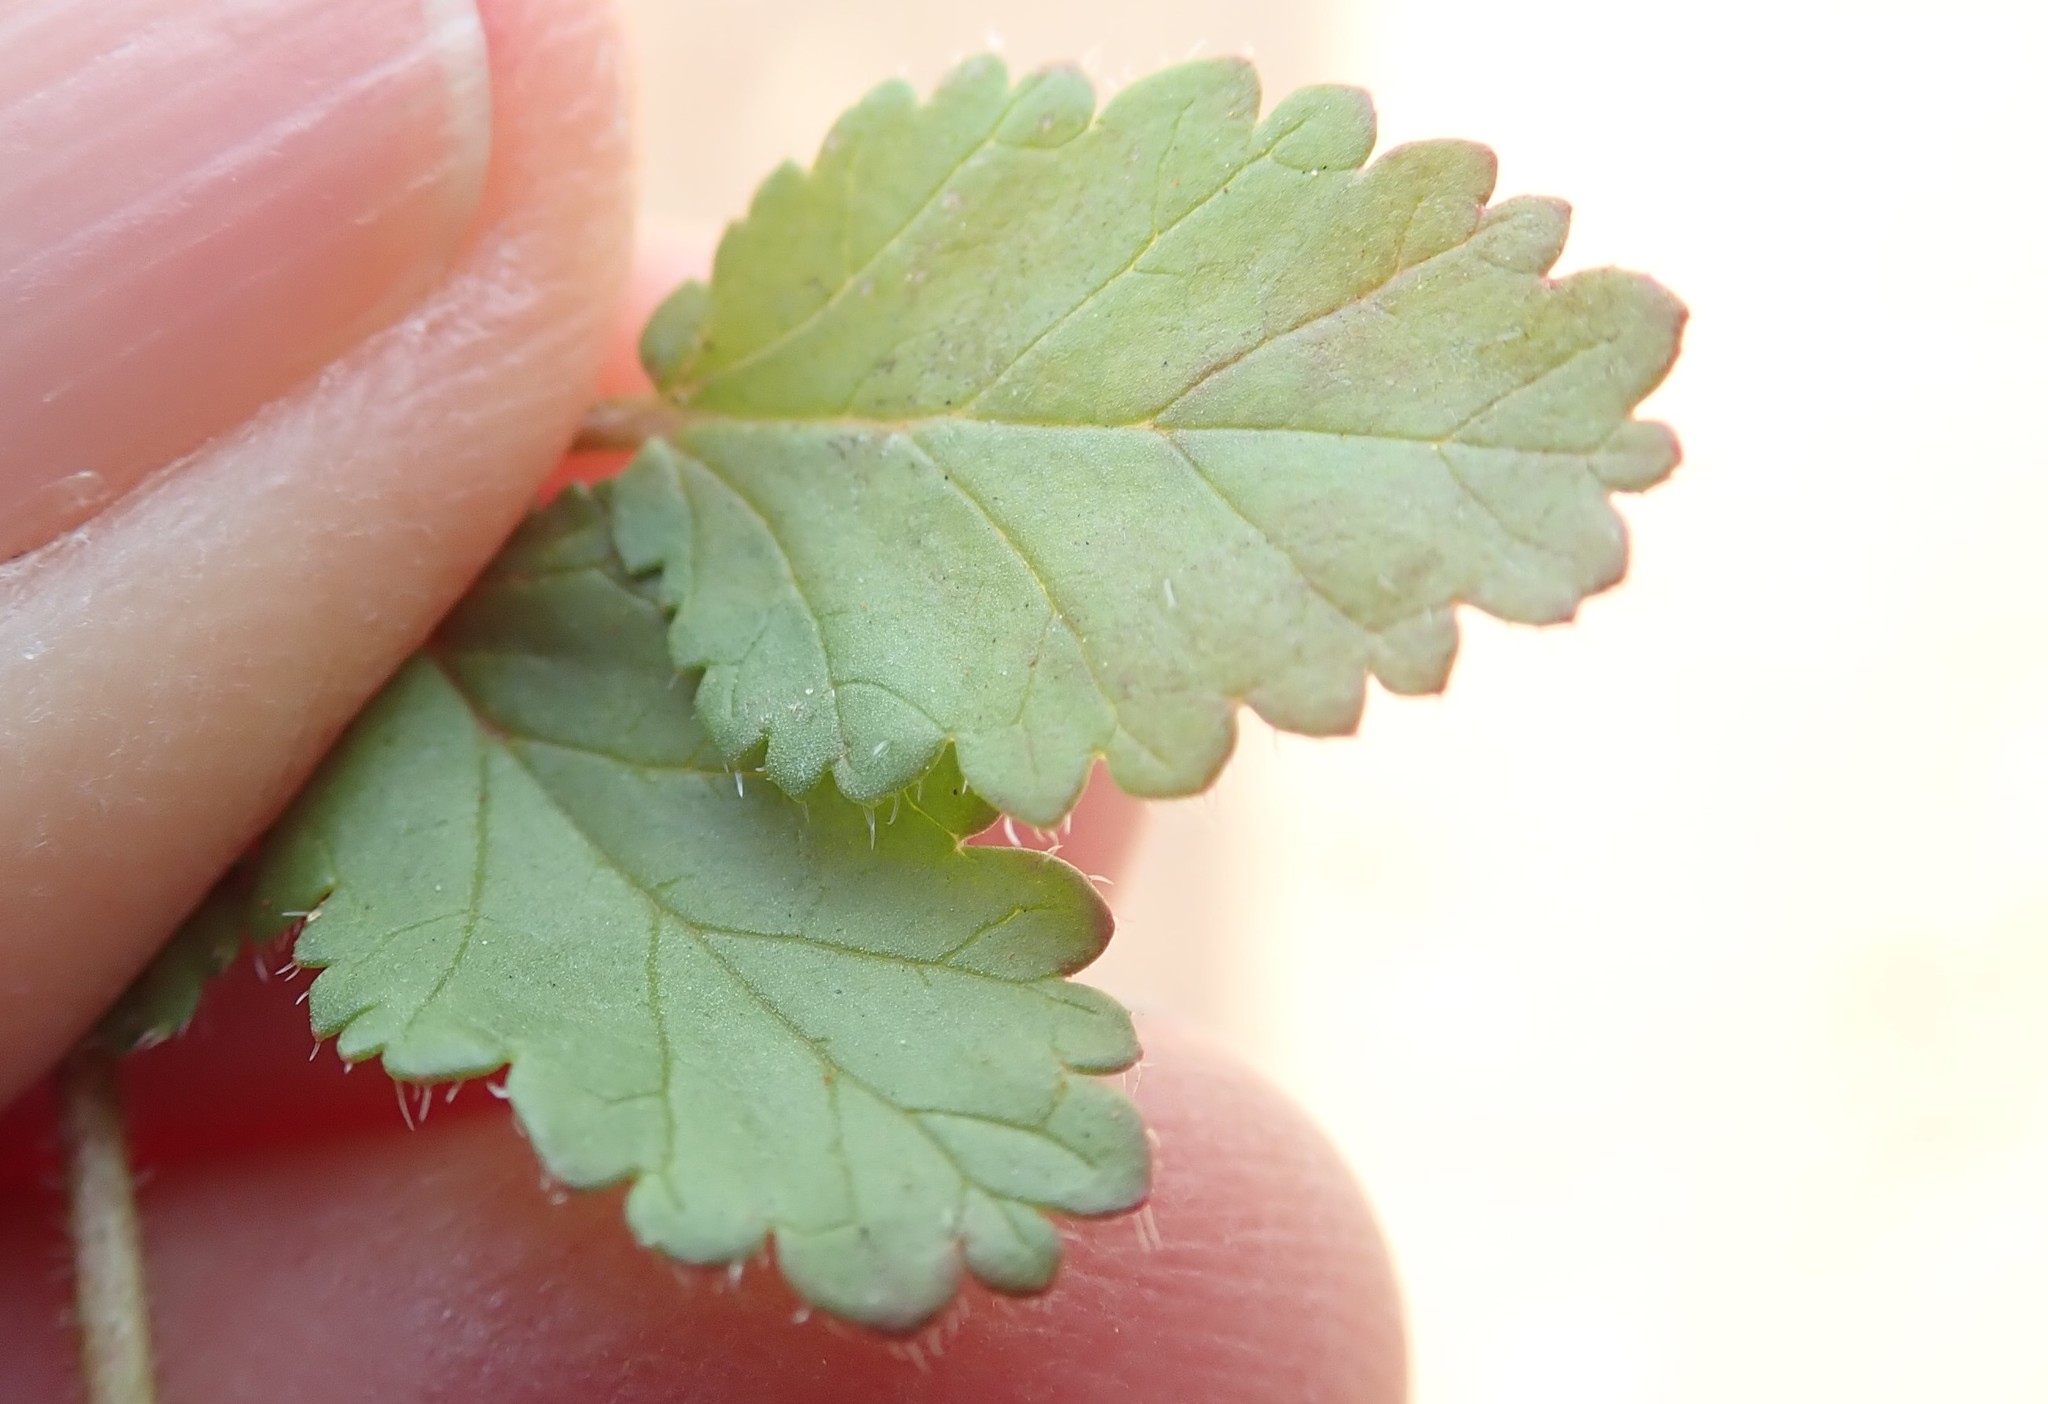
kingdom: Plantae
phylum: Tracheophyta
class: Magnoliopsida
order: Geraniales
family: Geraniaceae
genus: Erodium
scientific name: Erodium brachycarpum
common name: Hairy-pitted stork's-bill
